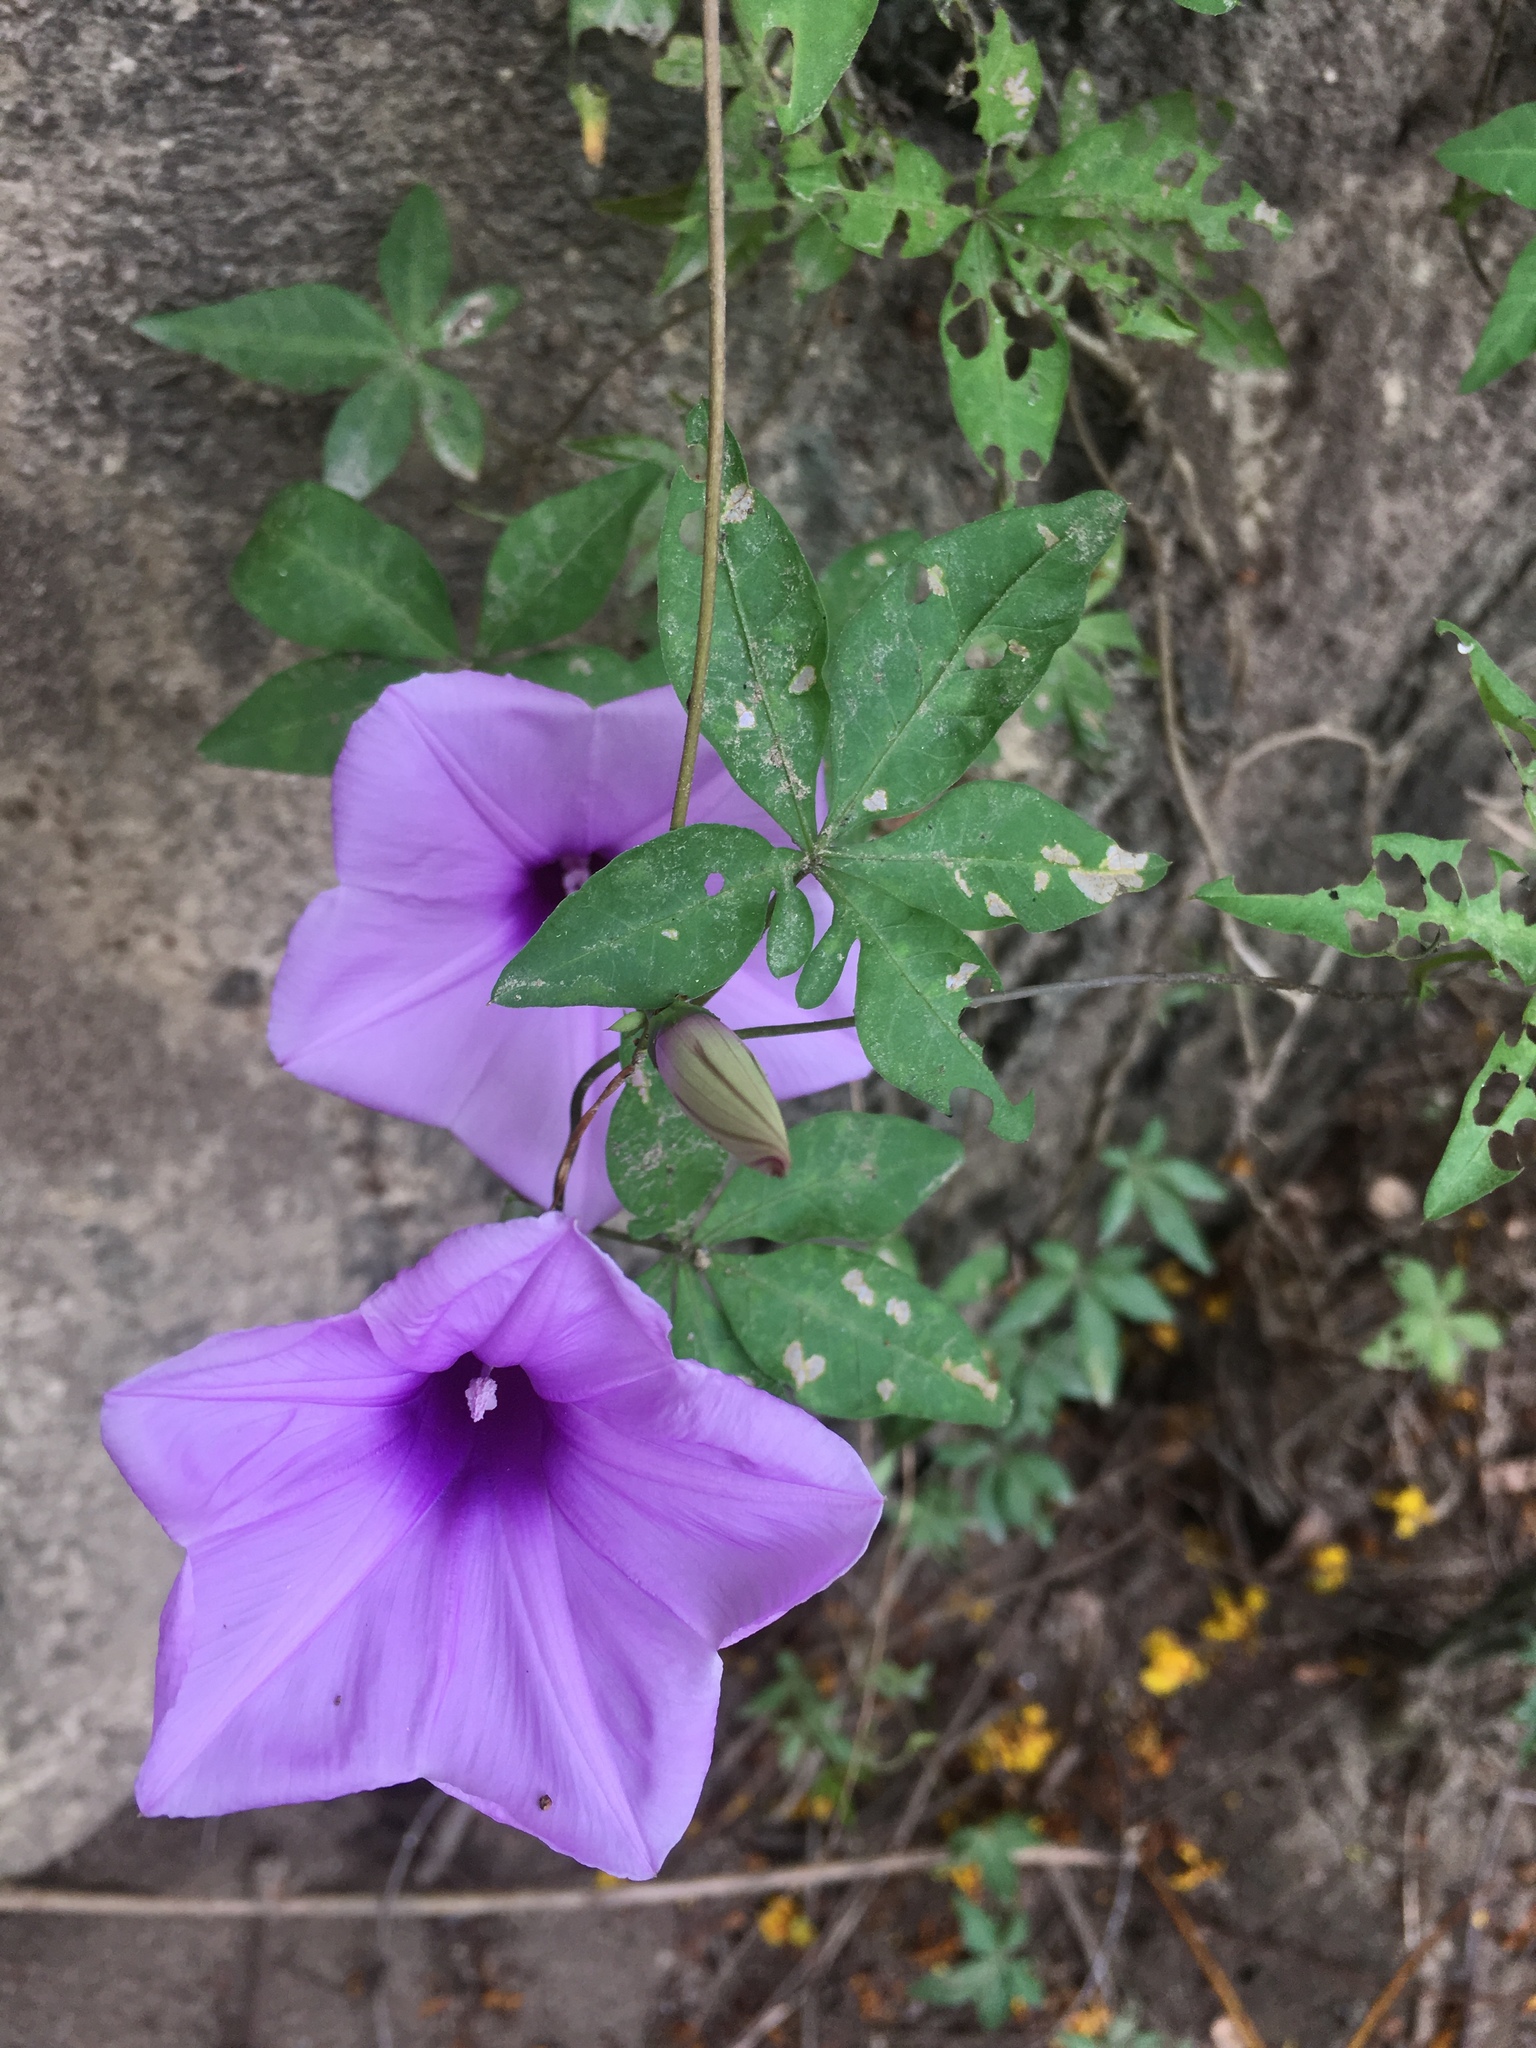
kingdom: Plantae
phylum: Tracheophyta
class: Magnoliopsida
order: Solanales
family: Convolvulaceae
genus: Ipomoea
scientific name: Ipomoea cairica
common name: Mile a minute vine
